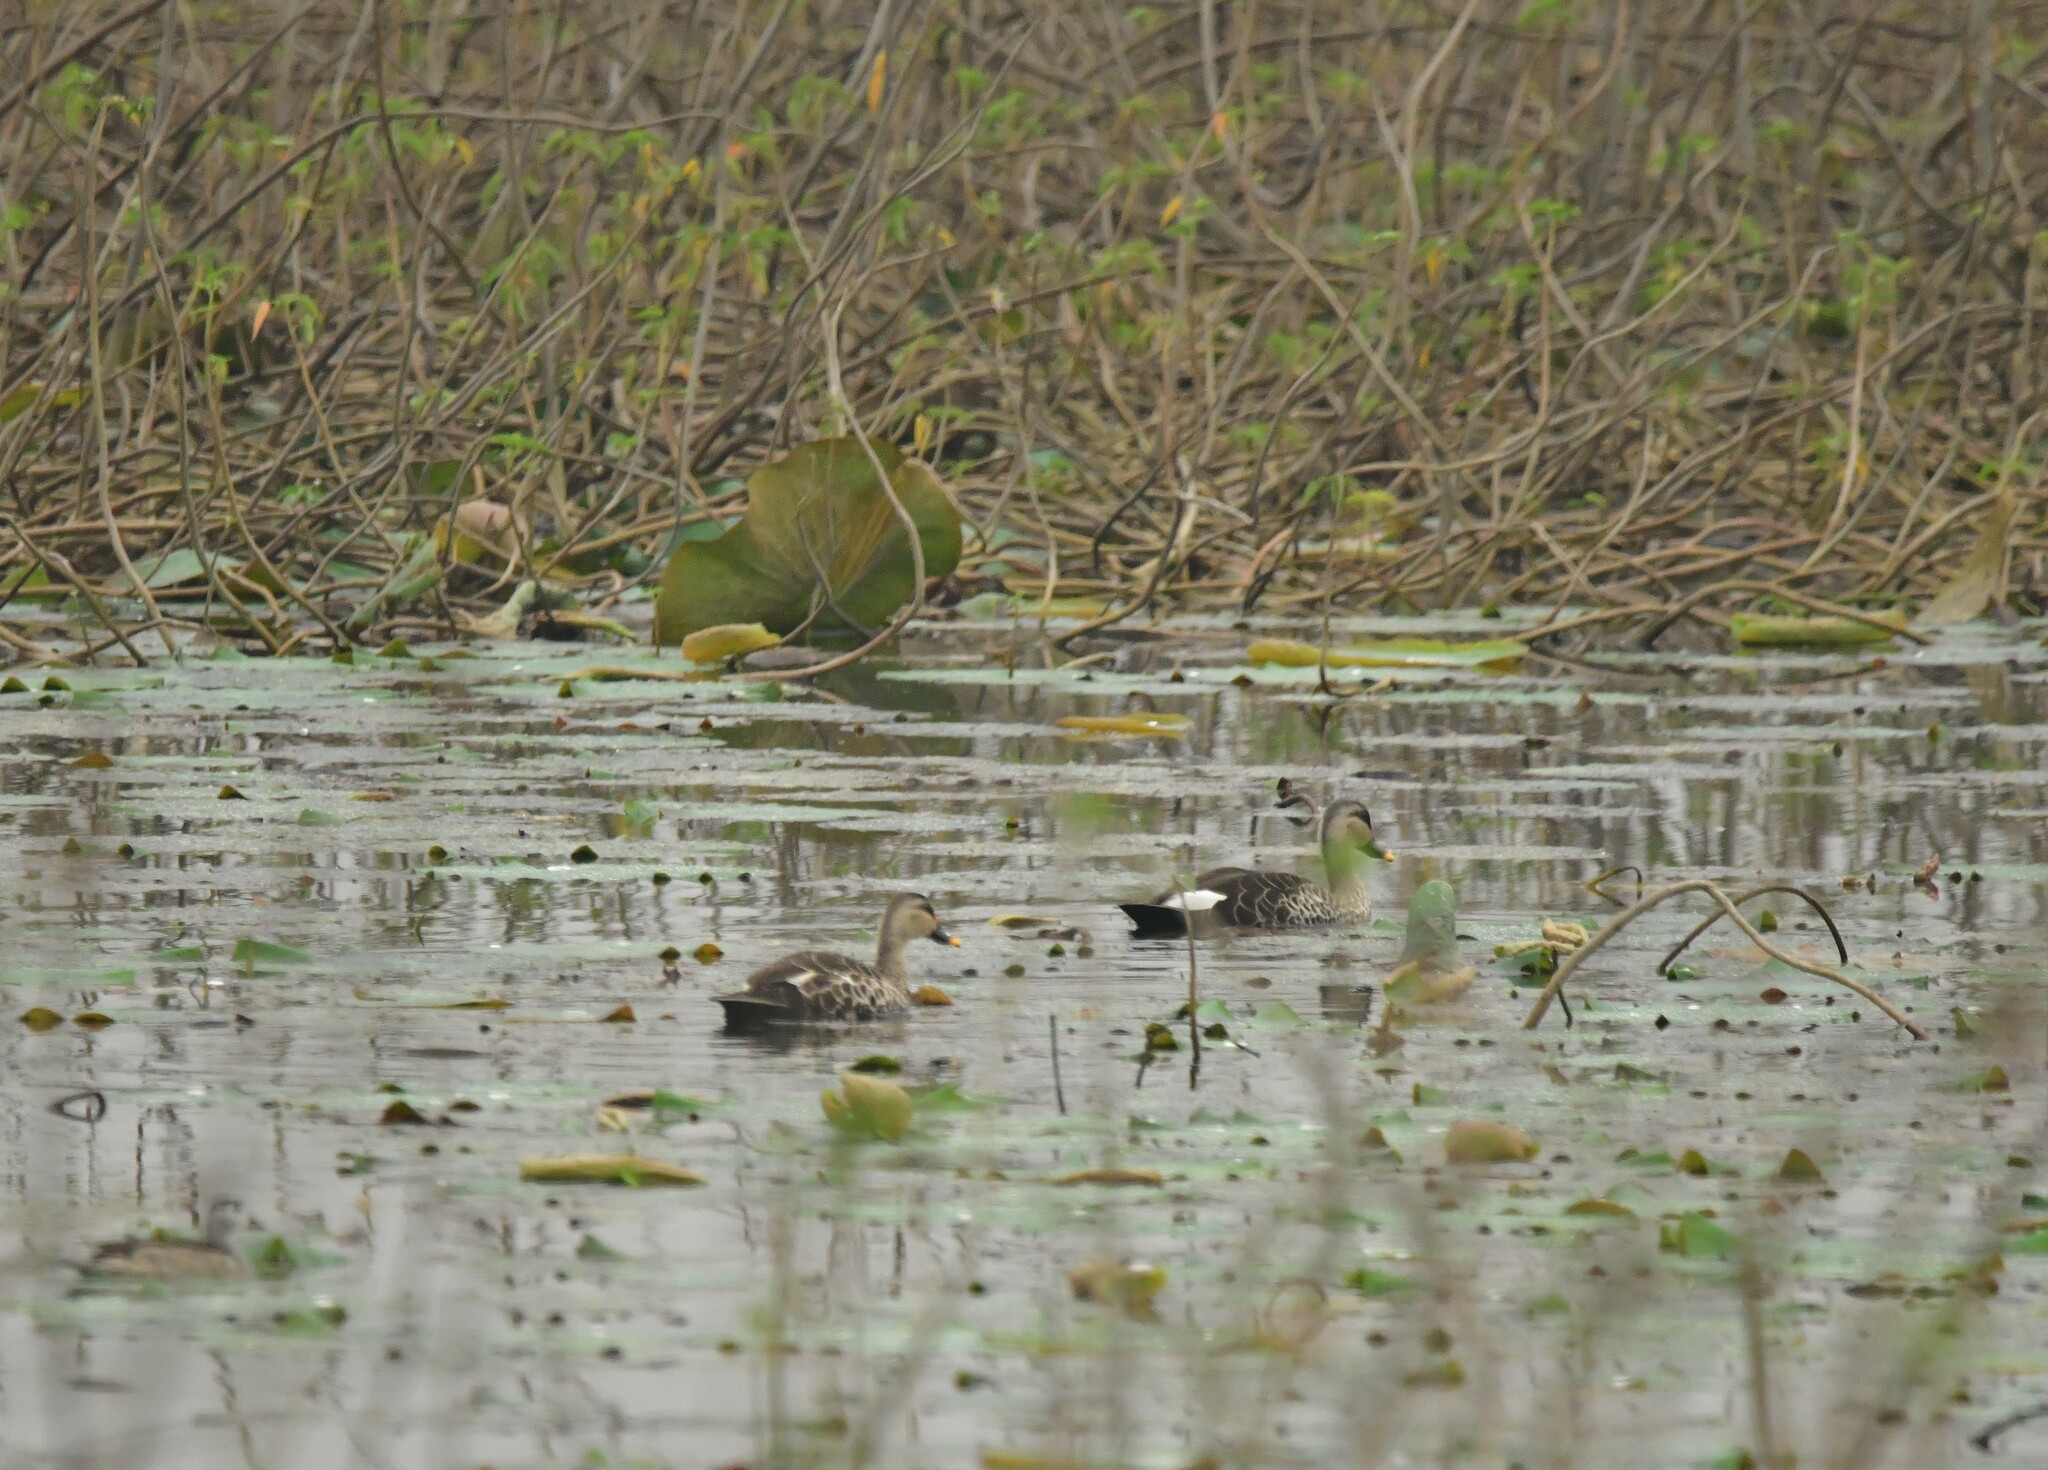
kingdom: Animalia
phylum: Chordata
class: Aves
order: Anseriformes
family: Anatidae
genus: Anas
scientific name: Anas poecilorhyncha
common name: Indian spot-billed duck
